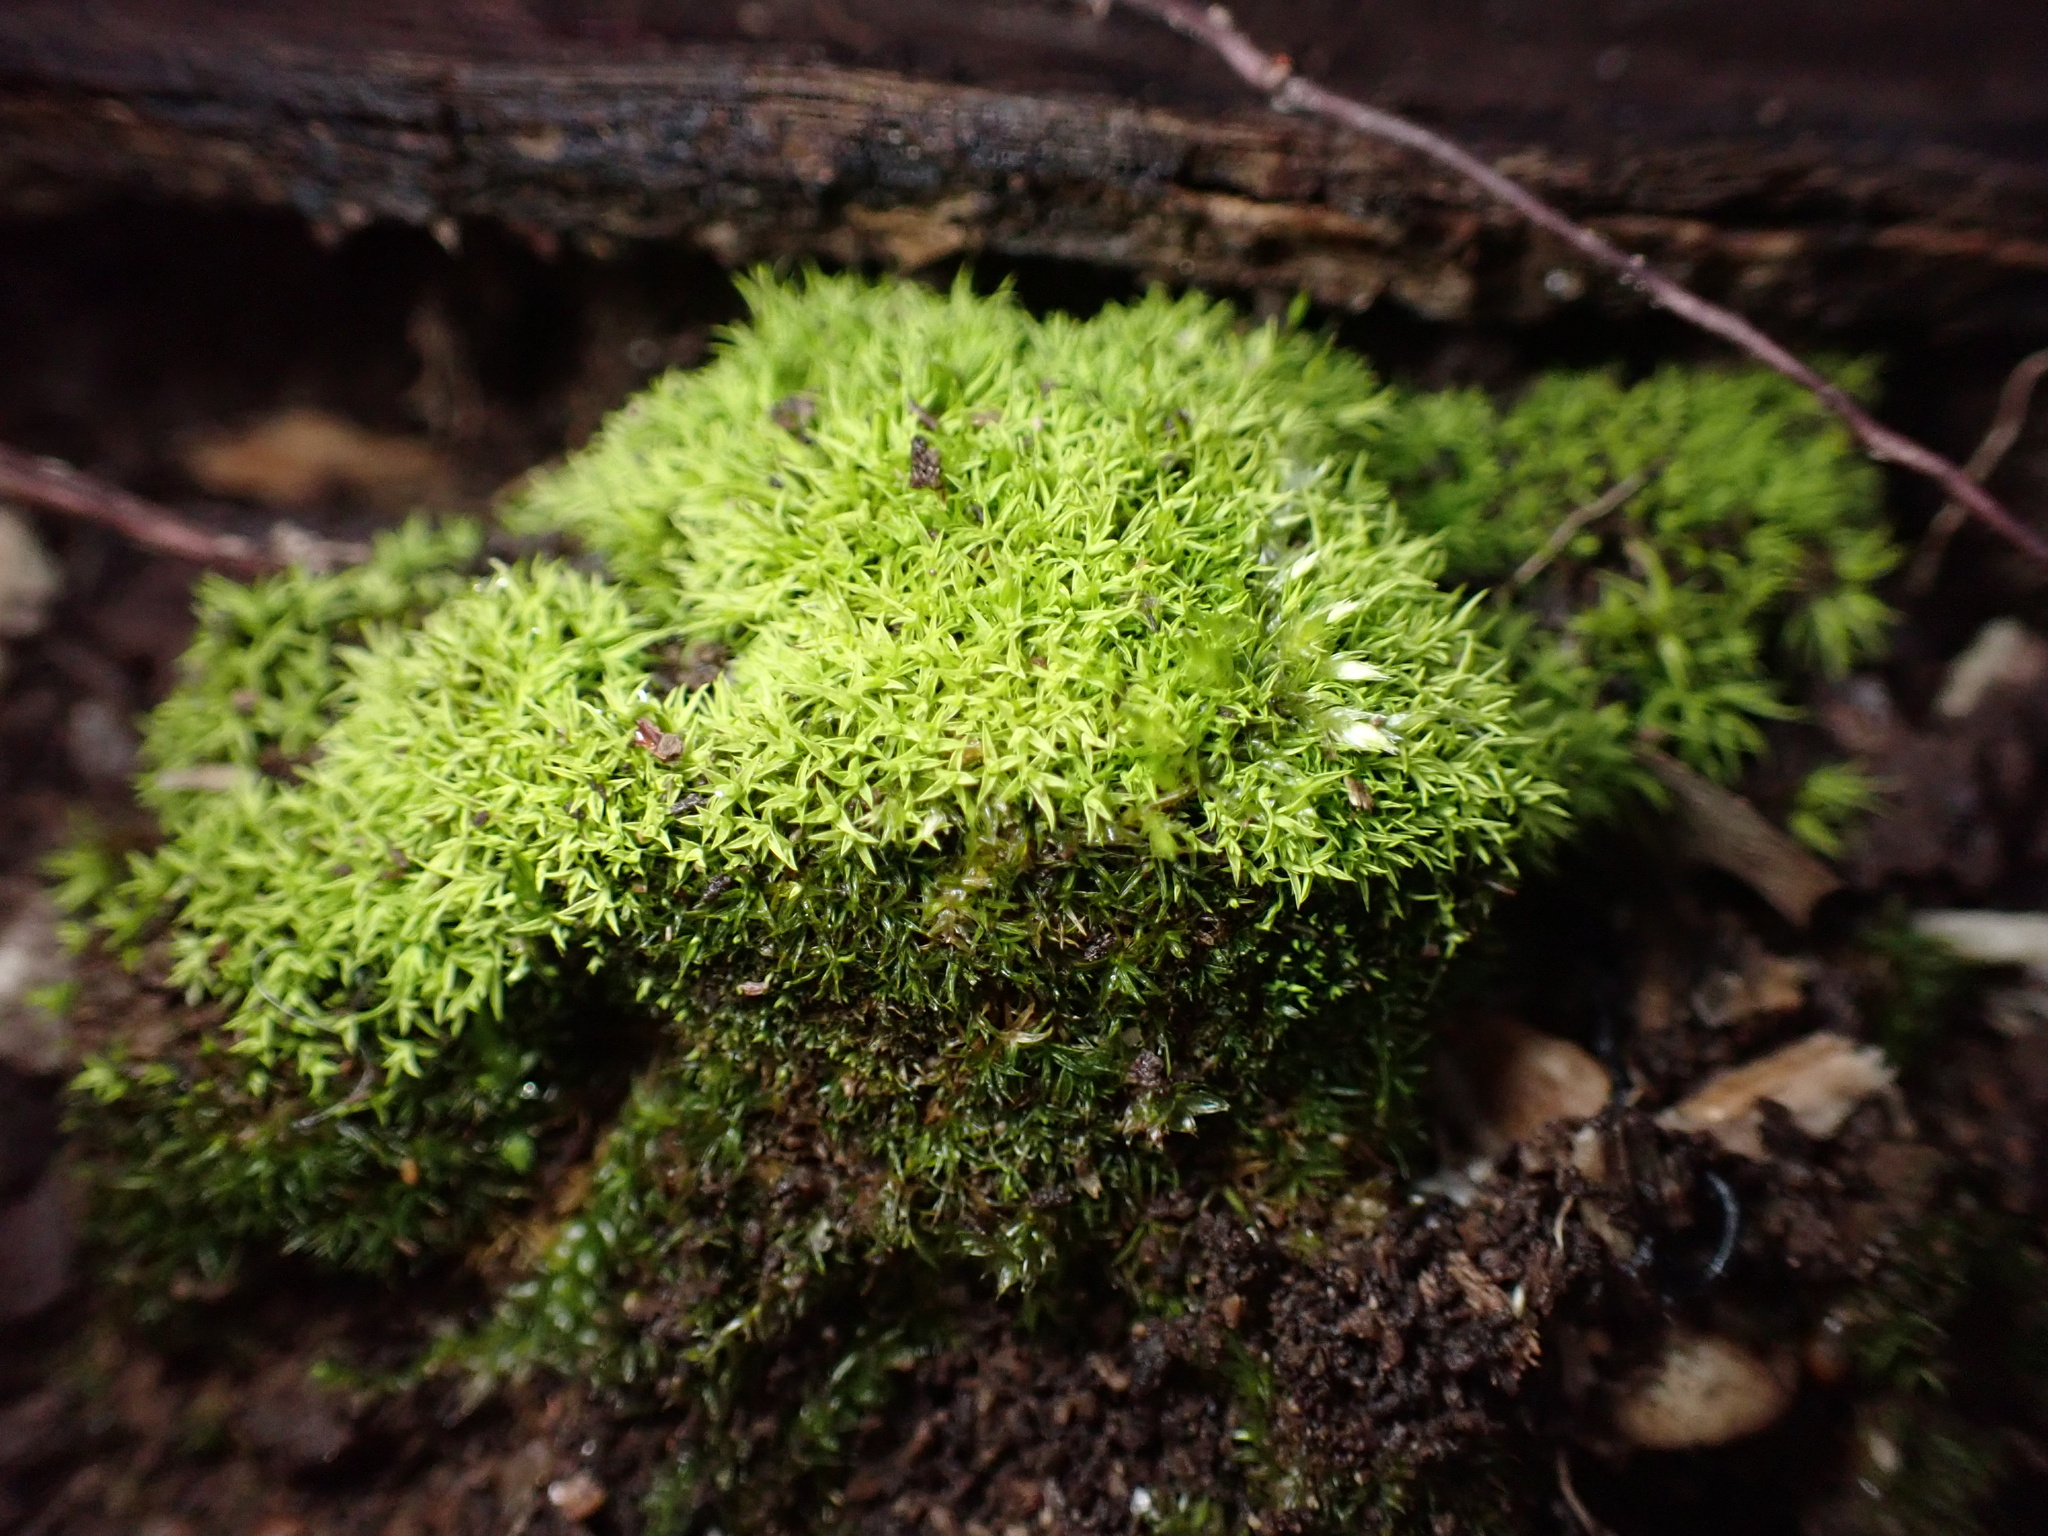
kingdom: Plantae
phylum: Bryophyta
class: Bryopsida
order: Pottiales
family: Pottiaceae
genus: Weissia
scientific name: Weissia controversa
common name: Green-tufted stubble moss
